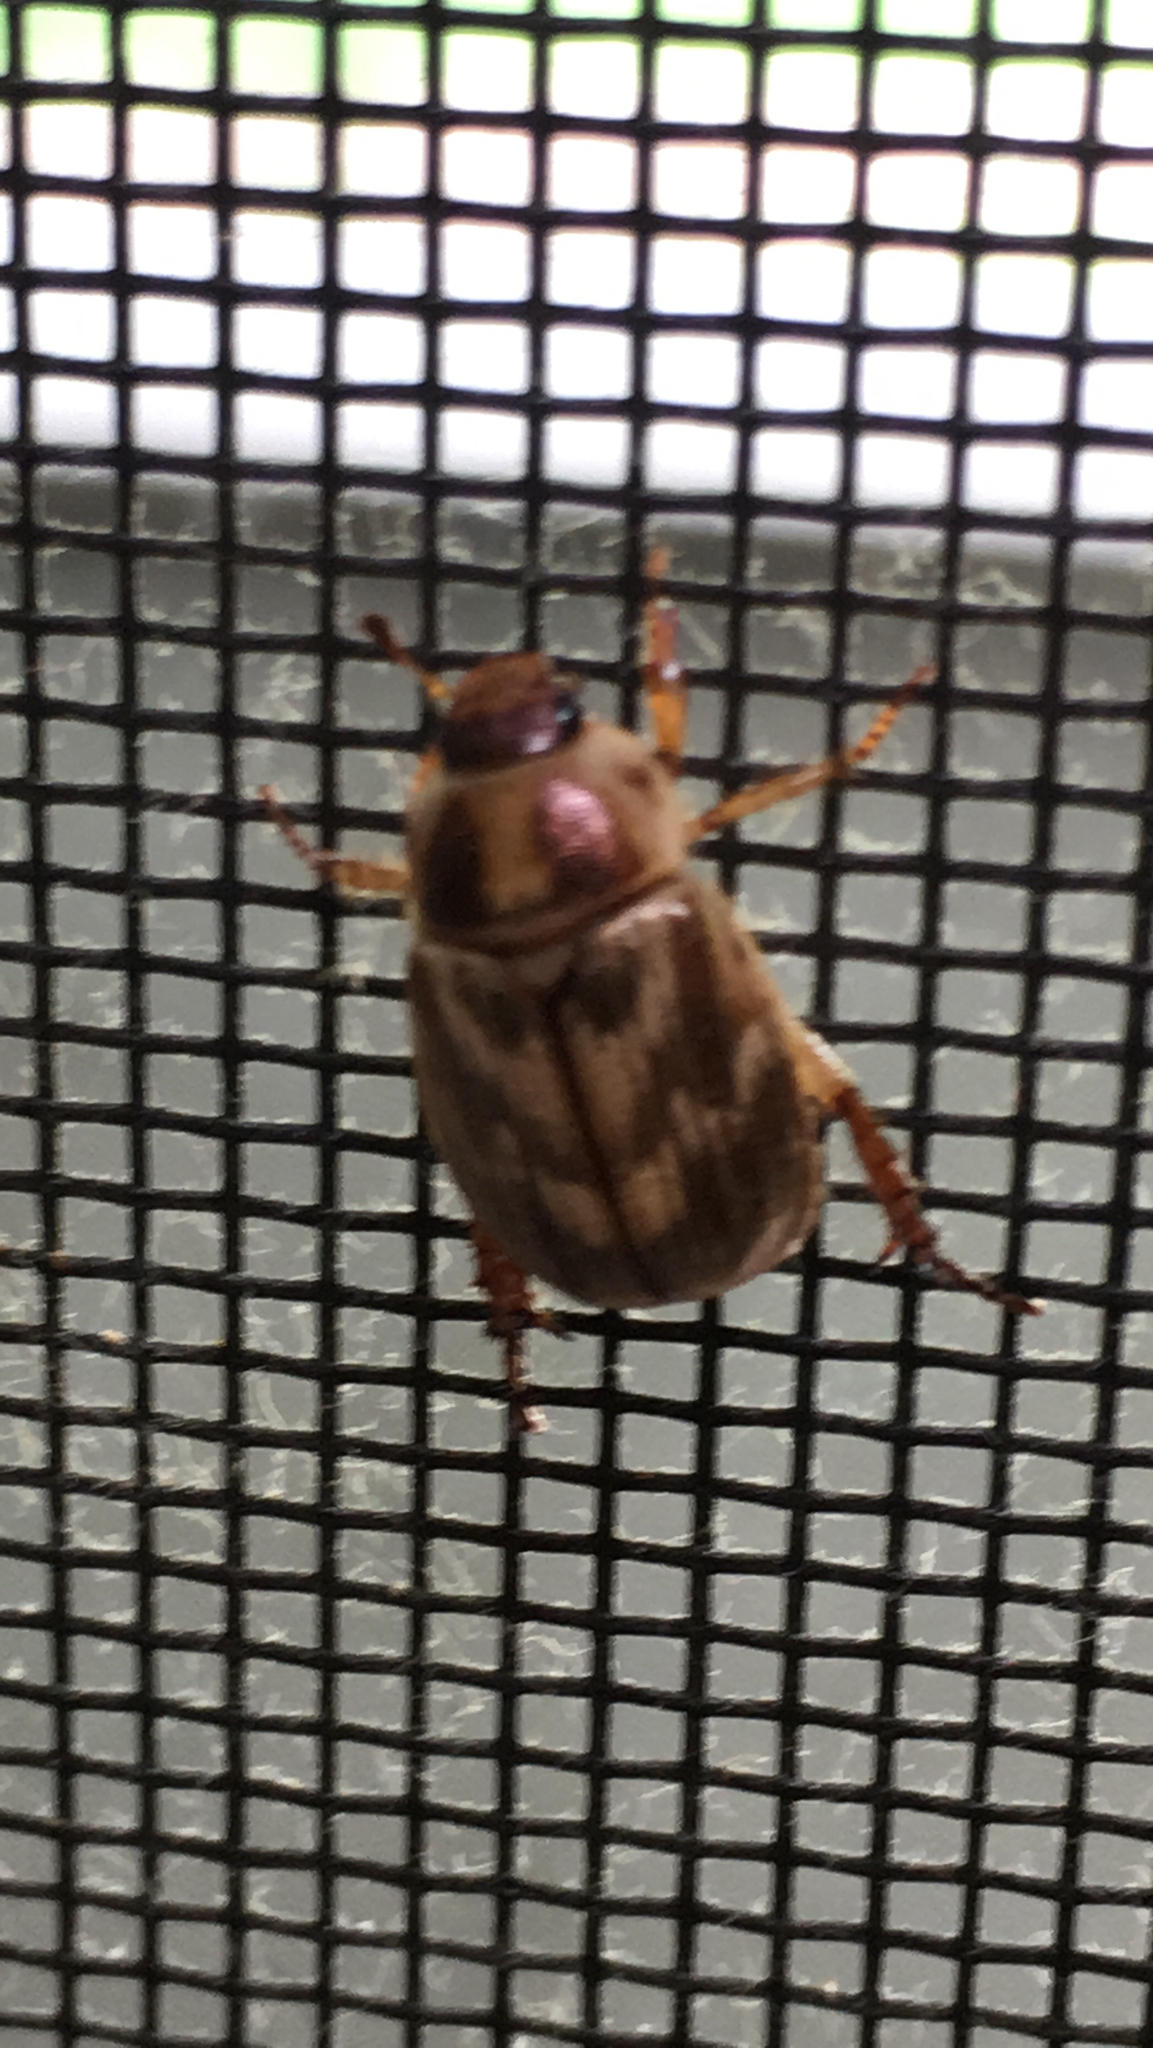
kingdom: Animalia
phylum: Arthropoda
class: Insecta
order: Coleoptera
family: Scarabaeidae
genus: Exomala
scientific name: Exomala orientalis
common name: Oriental beetle
